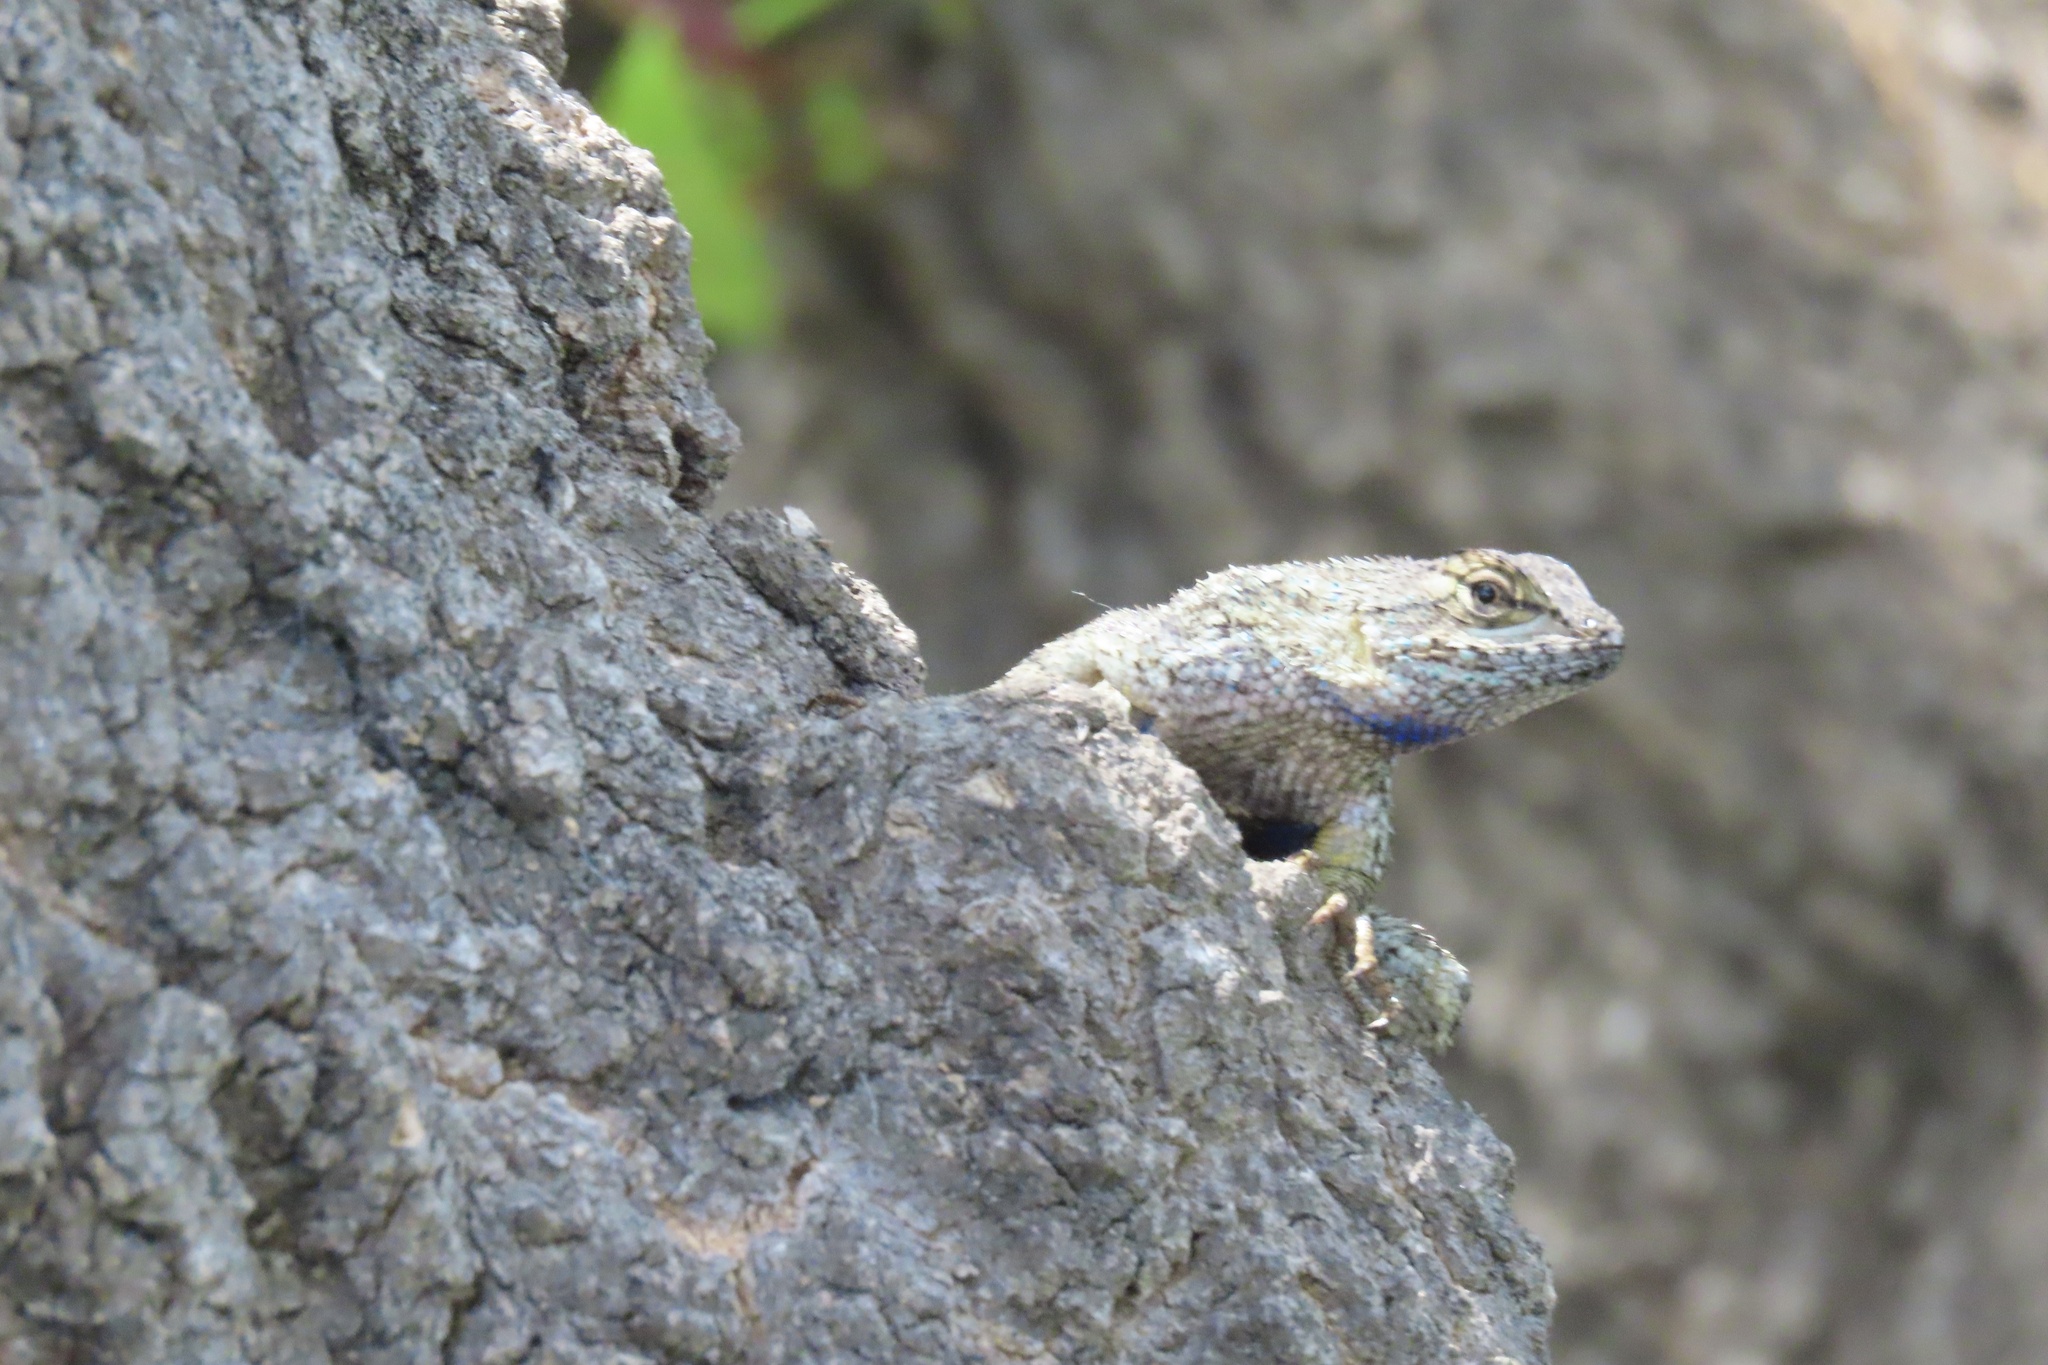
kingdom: Animalia
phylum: Chordata
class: Squamata
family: Phrynosomatidae
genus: Sceloporus
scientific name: Sceloporus occidentalis
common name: Western fence lizard
